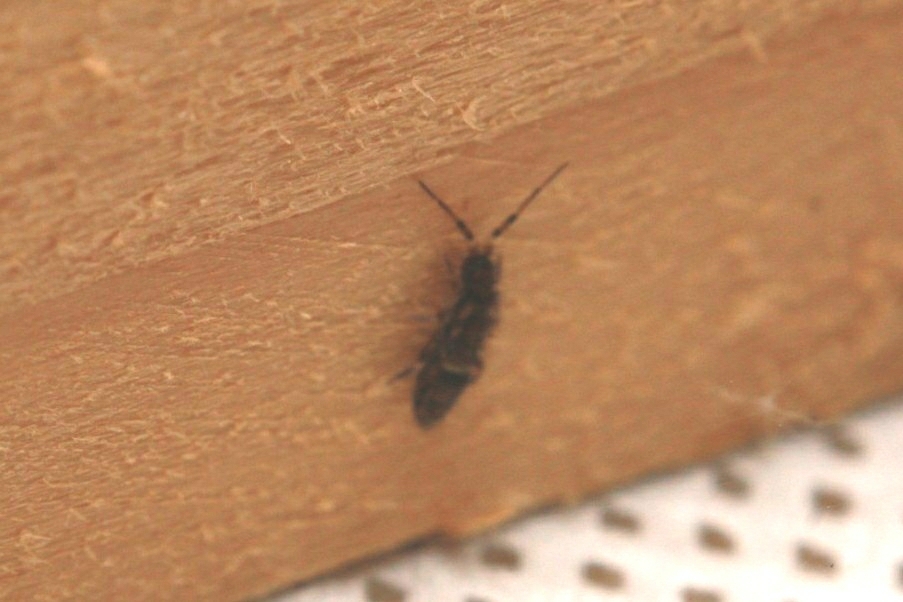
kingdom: Animalia
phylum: Arthropoda
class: Collembola
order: Entomobryomorpha
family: Orchesellidae
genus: Orchesella
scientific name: Orchesella cincta
